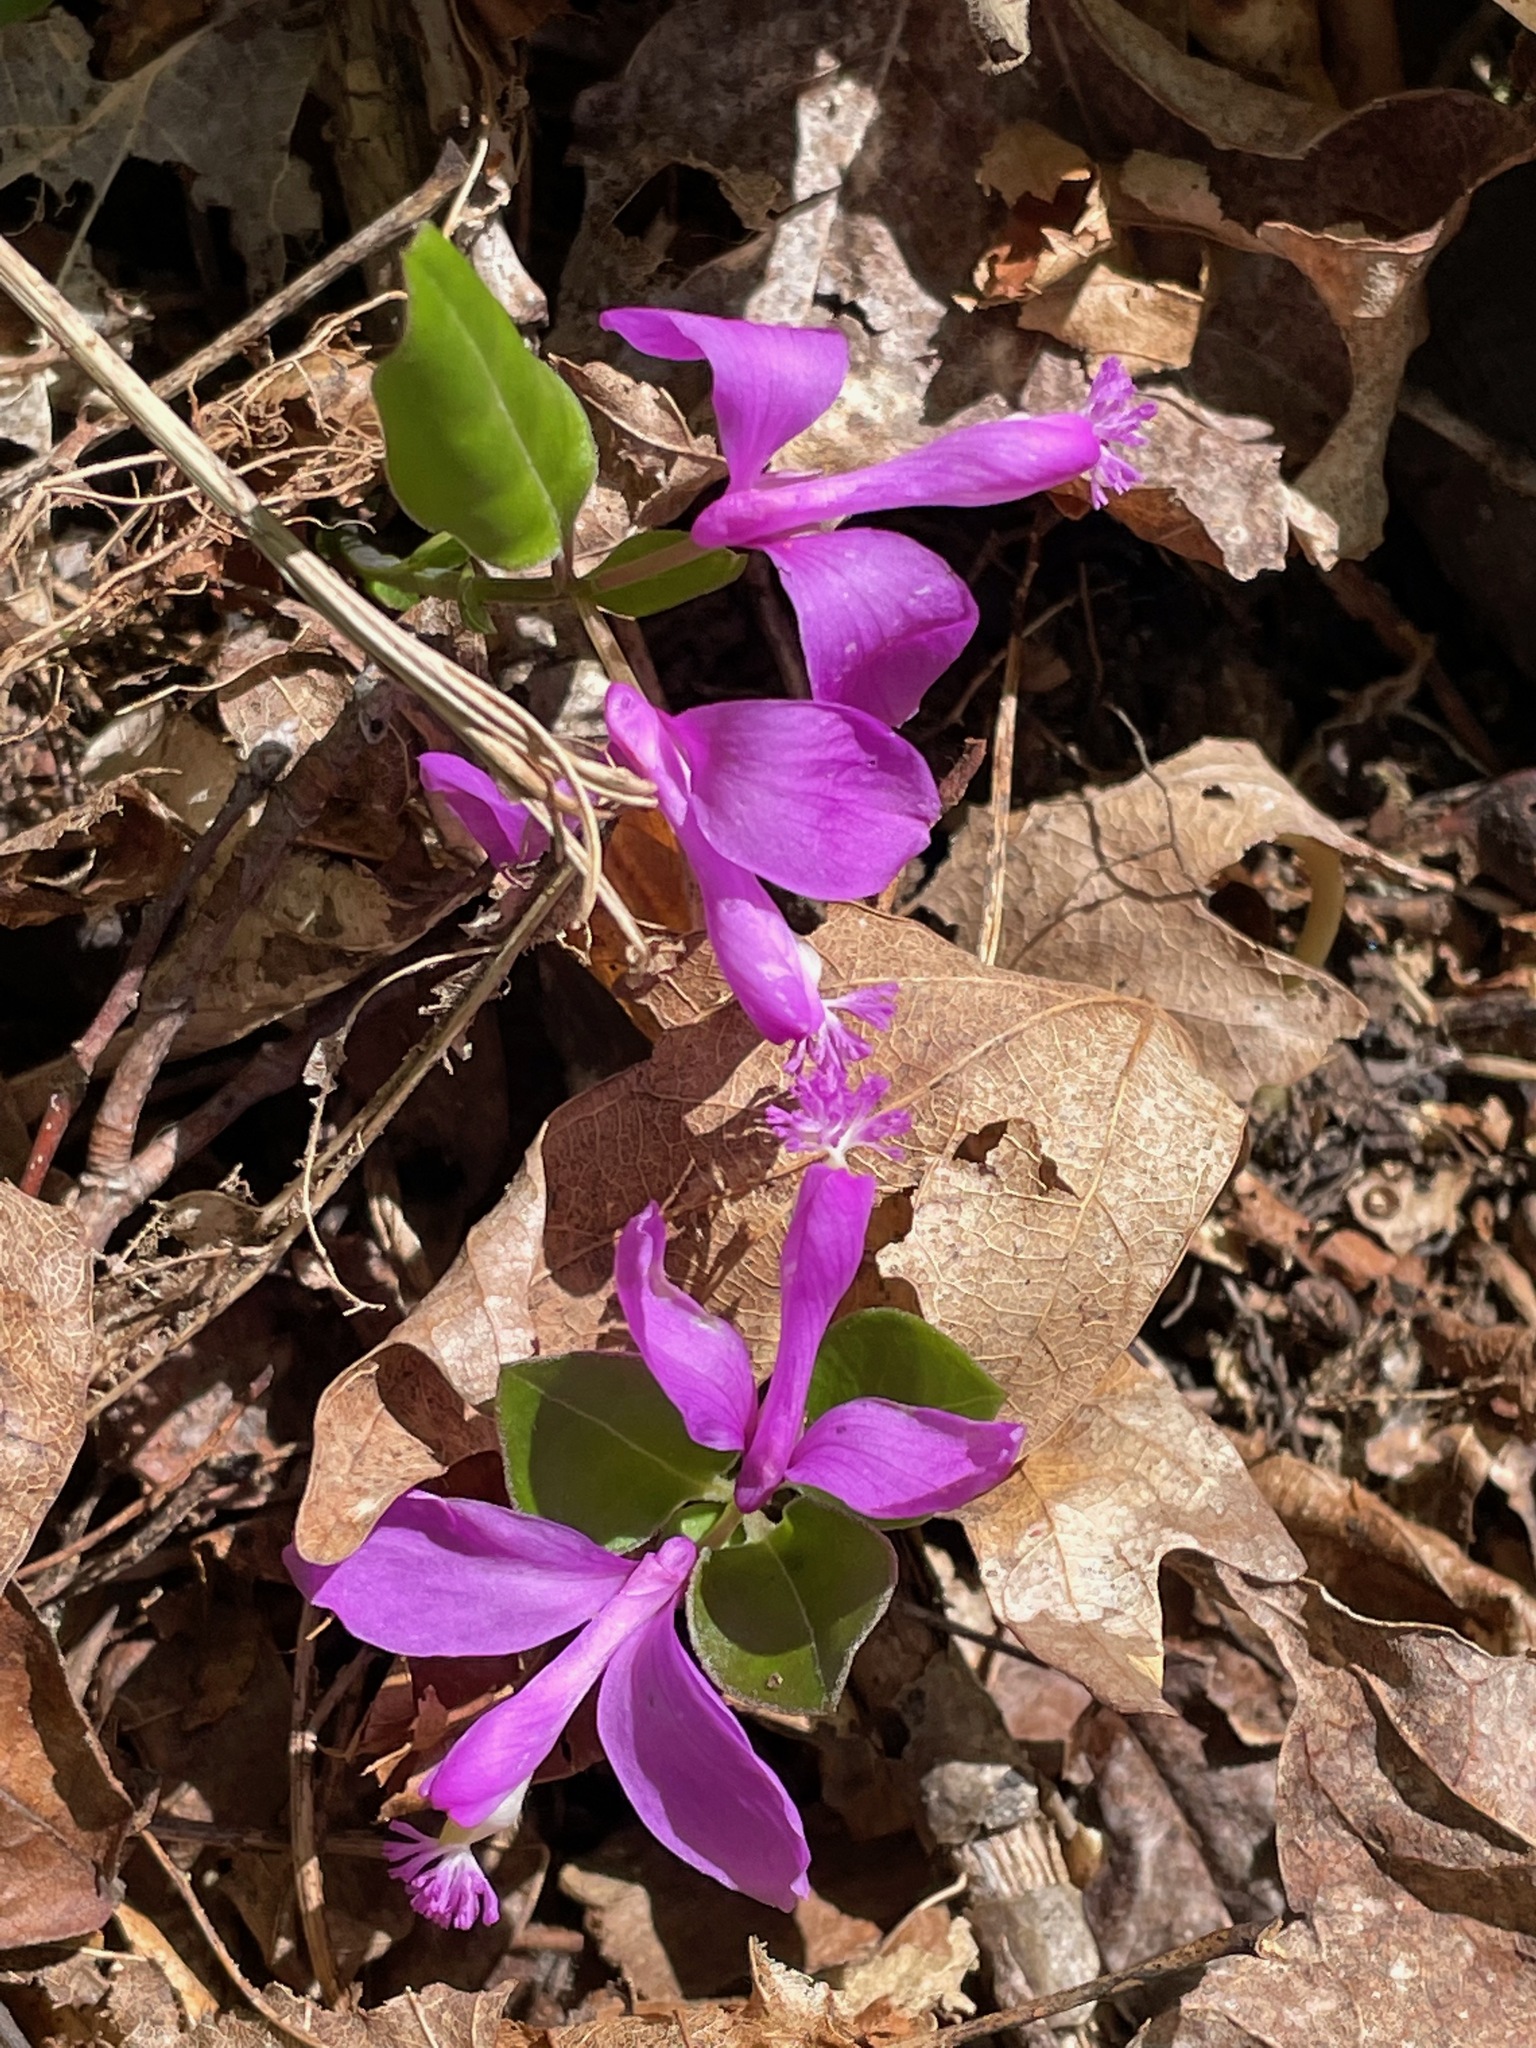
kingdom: Plantae
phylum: Tracheophyta
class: Magnoliopsida
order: Fabales
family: Polygalaceae
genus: Polygaloides
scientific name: Polygaloides paucifolia
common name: Bird-on-the-wing
